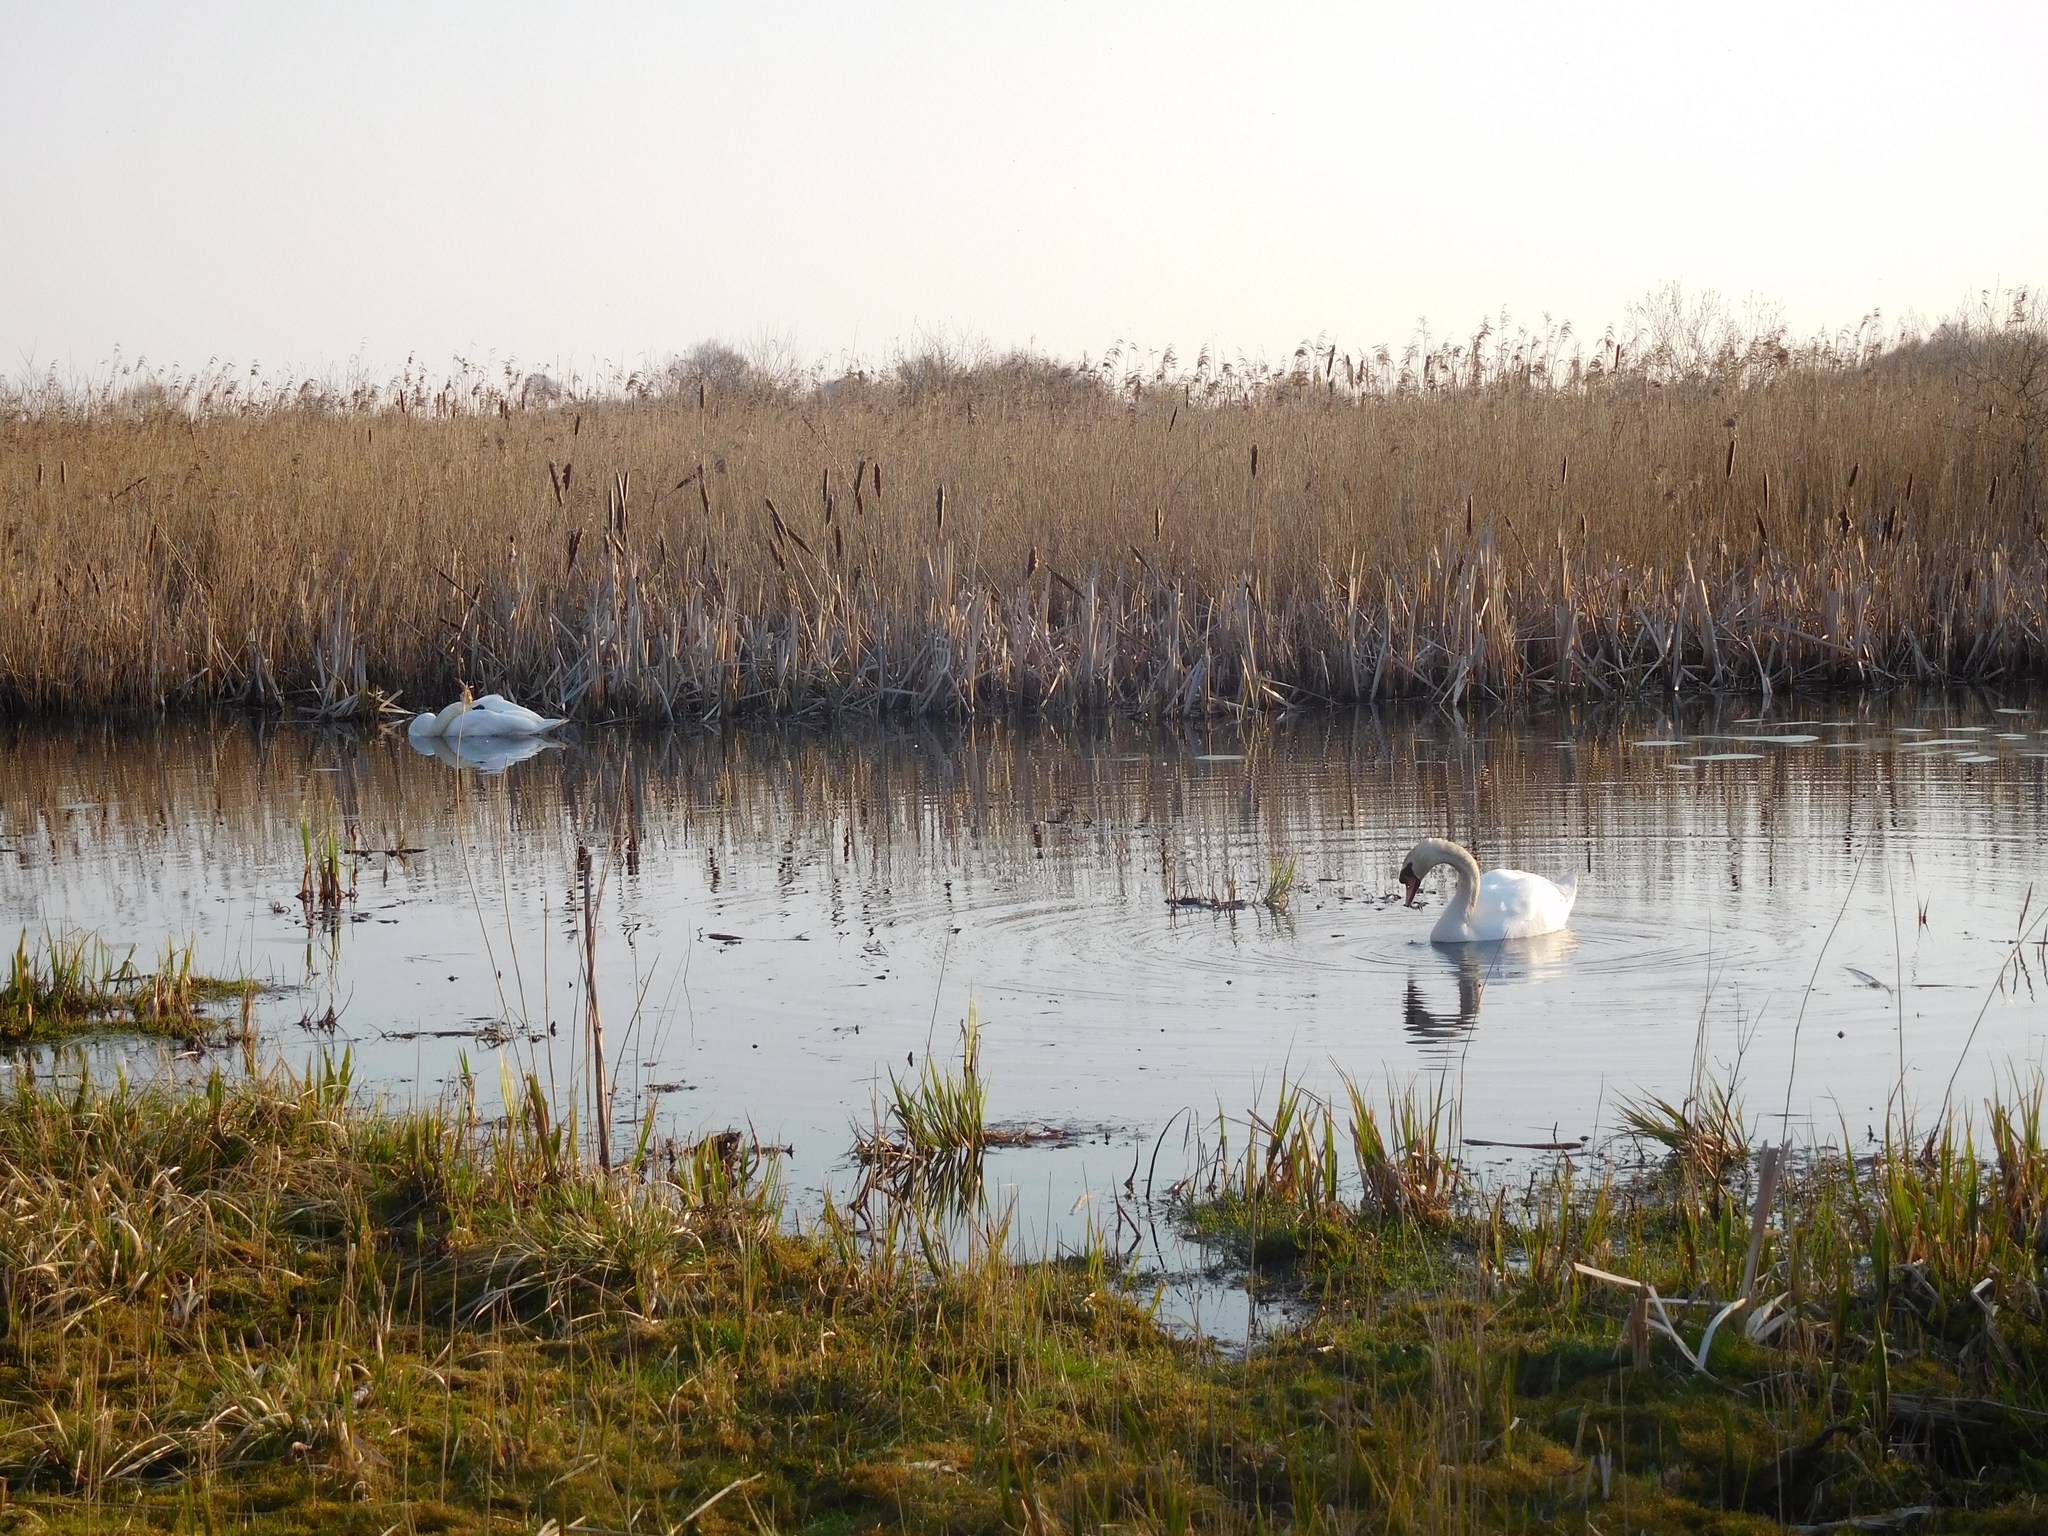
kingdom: Animalia
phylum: Chordata
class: Aves
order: Anseriformes
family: Anatidae
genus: Cygnus
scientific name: Cygnus olor
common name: Mute swan
